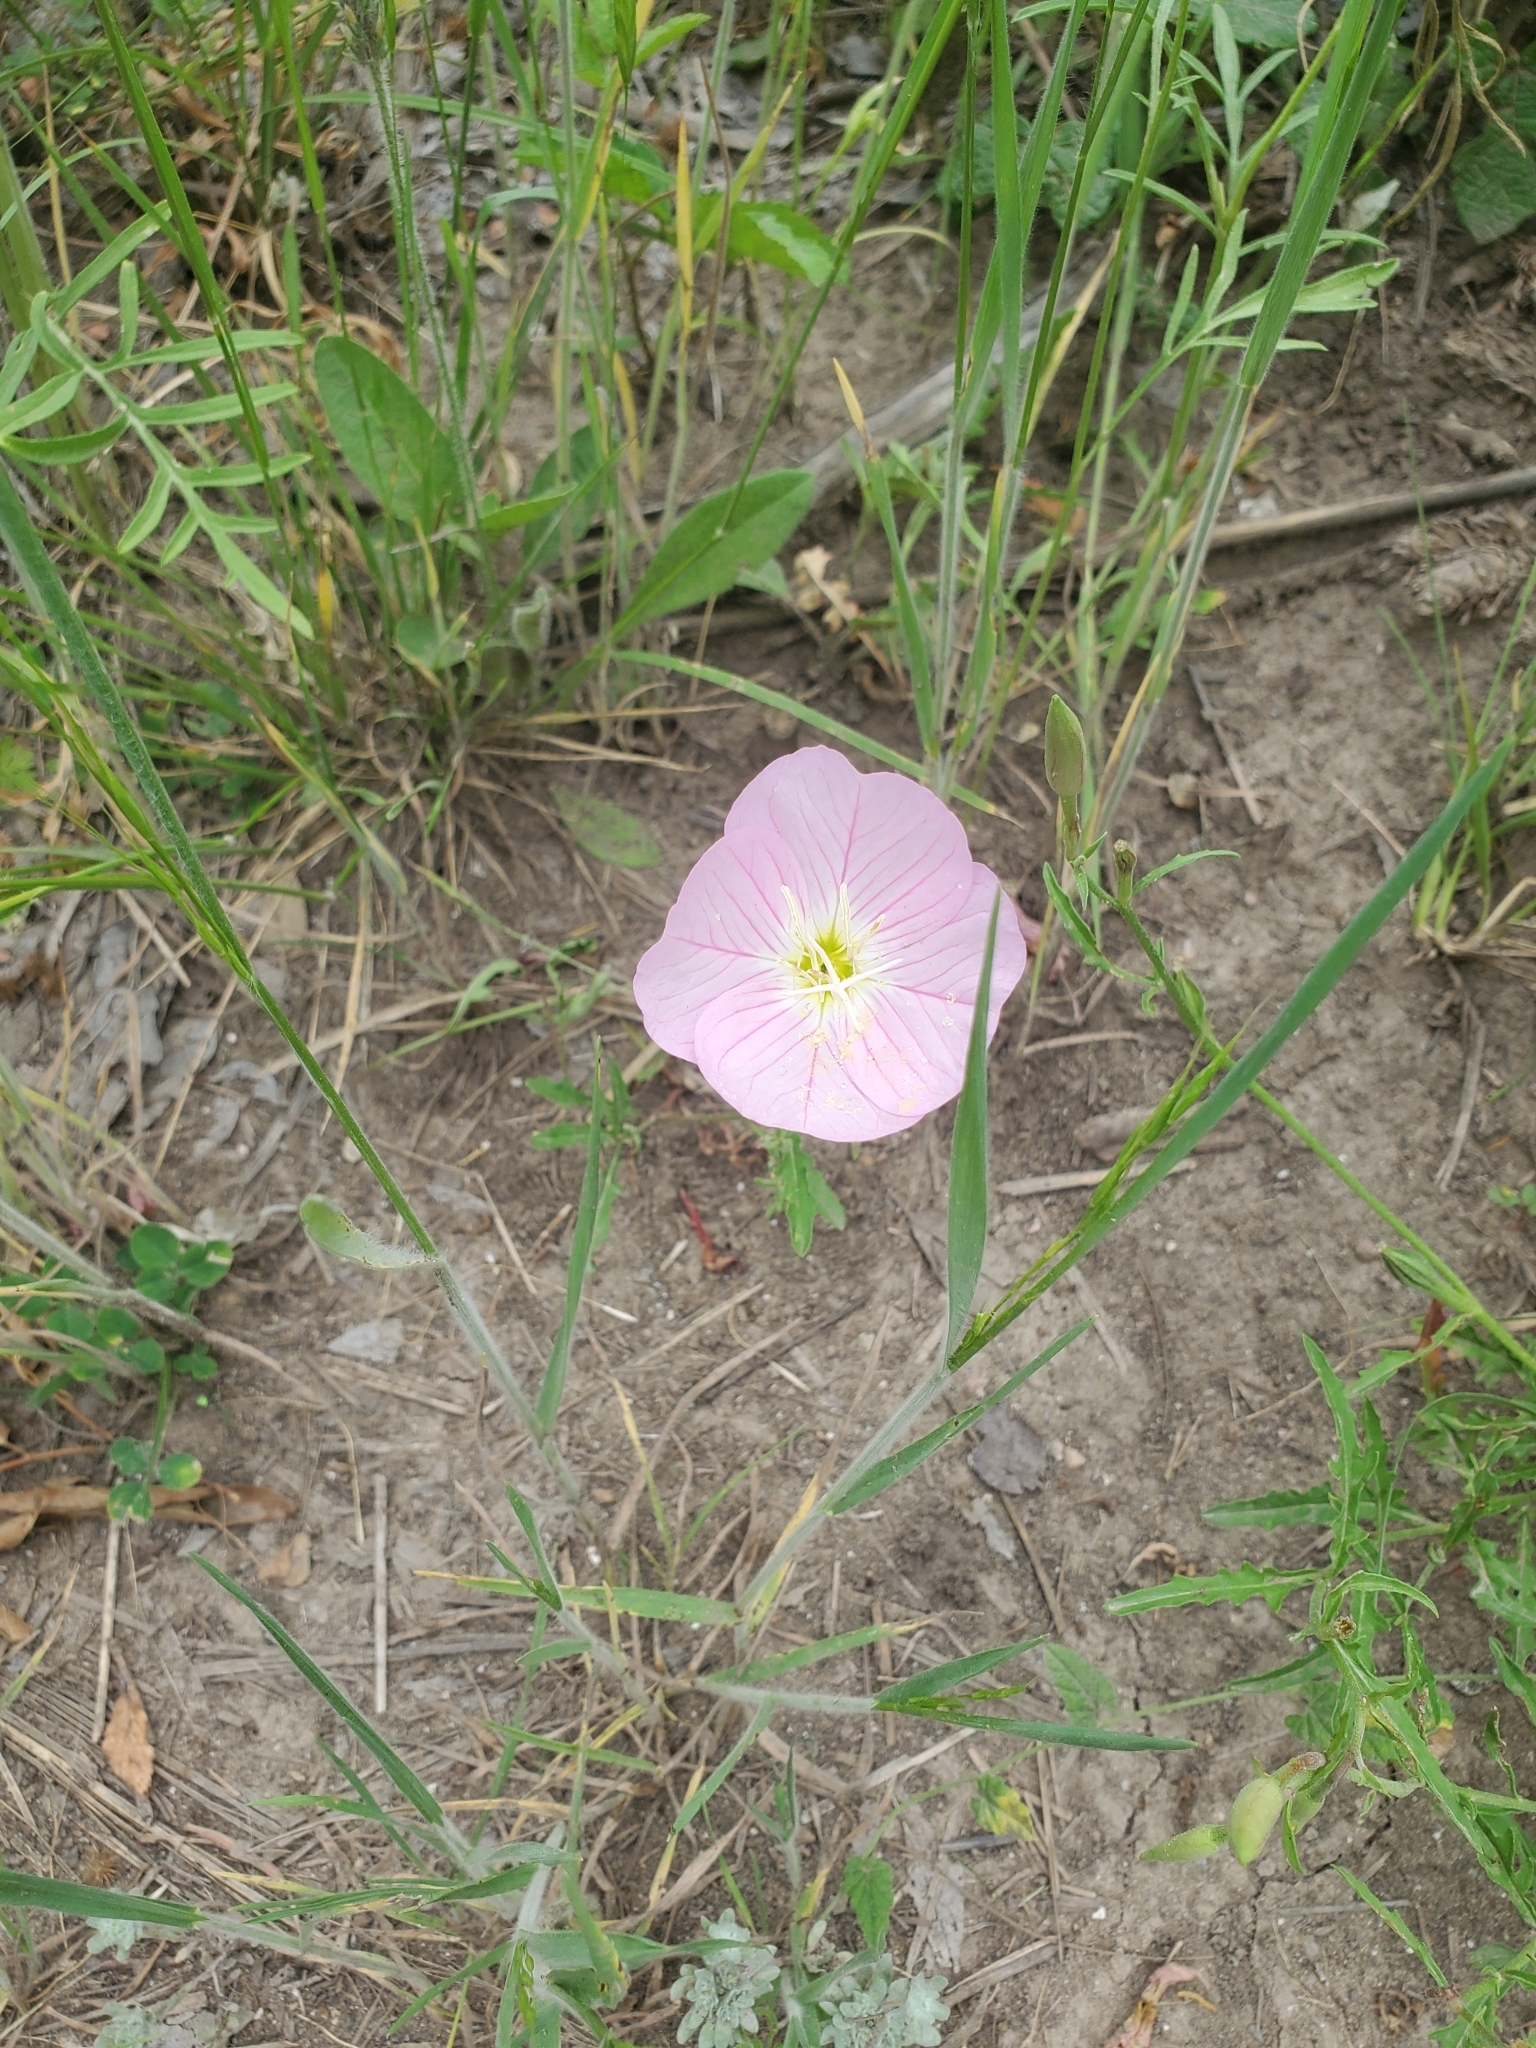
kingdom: Plantae
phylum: Tracheophyta
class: Magnoliopsida
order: Myrtales
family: Onagraceae
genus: Oenothera
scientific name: Oenothera speciosa
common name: White evening-primrose
